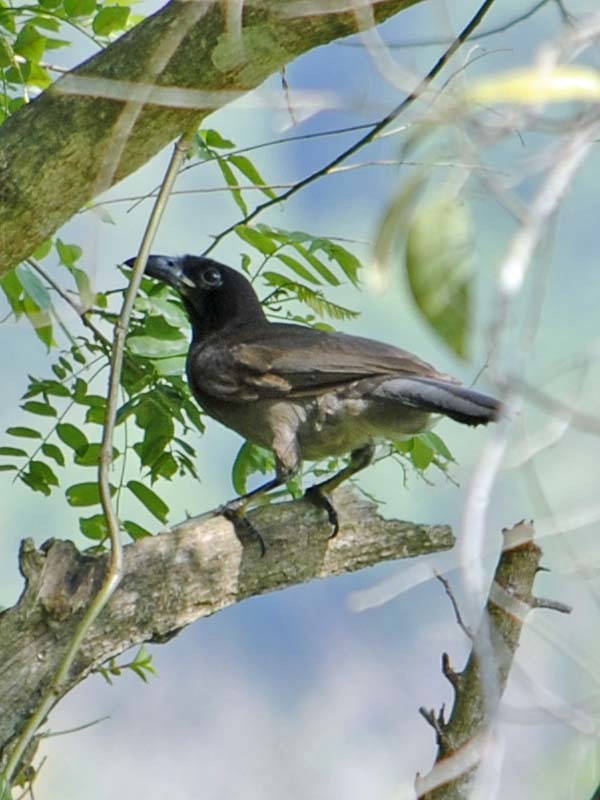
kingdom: Animalia
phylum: Chordata
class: Aves
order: Passeriformes
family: Corvidae
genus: Psilorhinus
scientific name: Psilorhinus morio
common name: Brown jay
